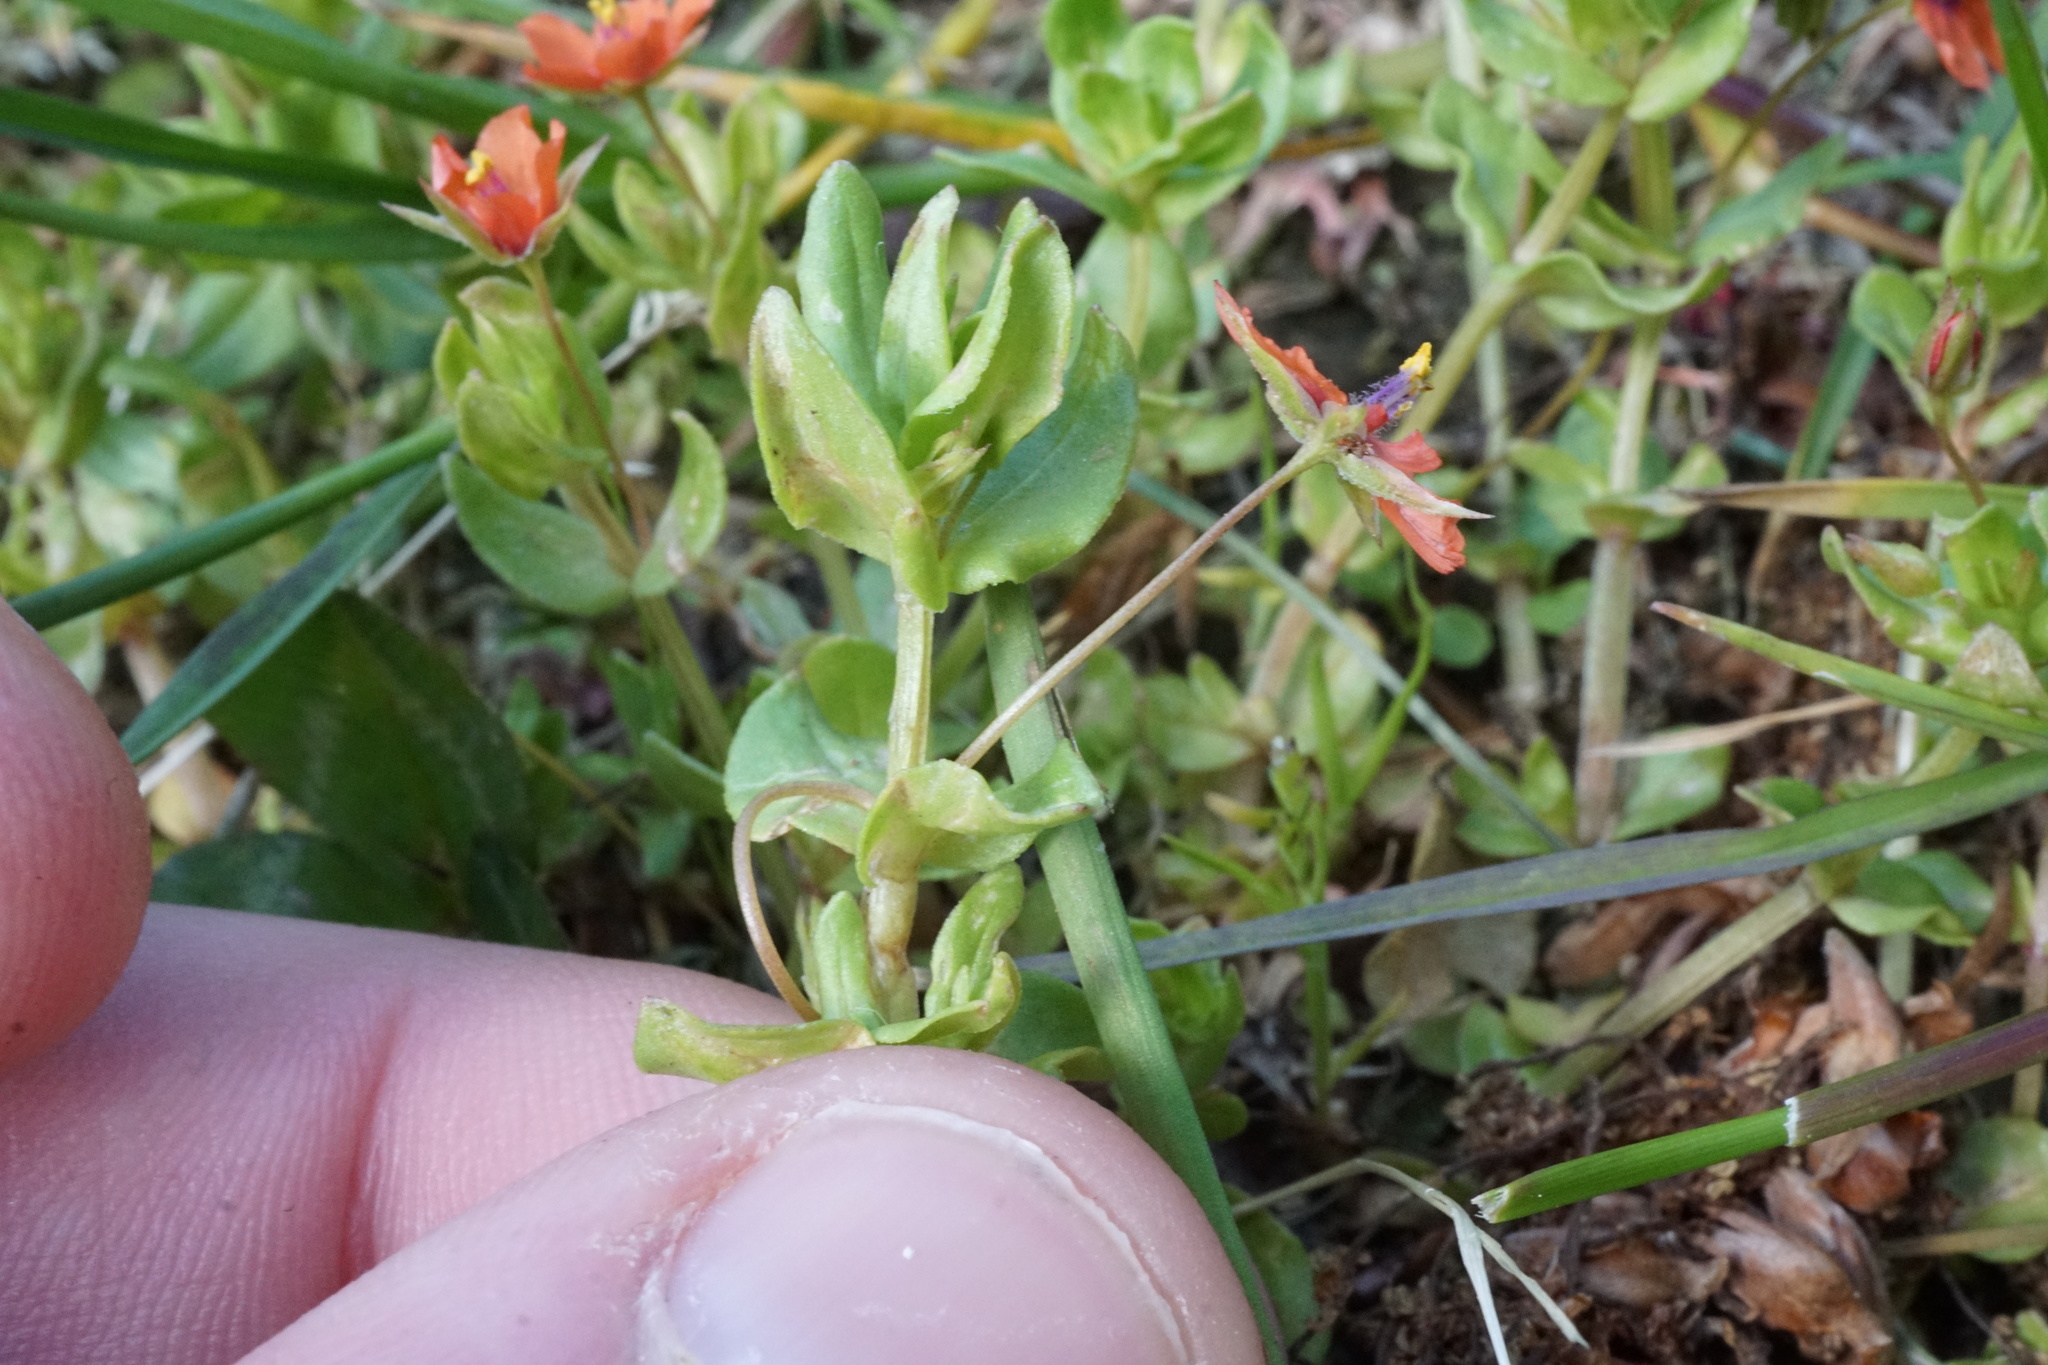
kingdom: Plantae
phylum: Tracheophyta
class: Magnoliopsida
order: Ericales
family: Primulaceae
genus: Lysimachia
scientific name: Lysimachia arvensis
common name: Scarlet pimpernel
